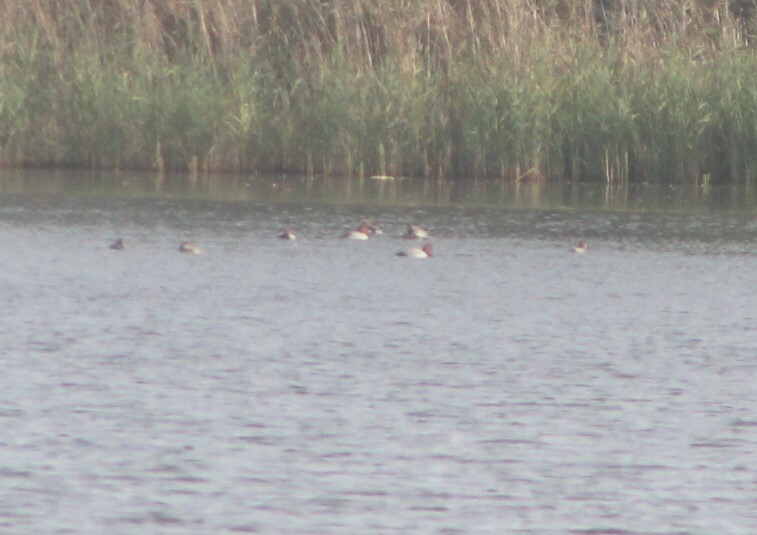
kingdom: Animalia
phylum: Chordata
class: Aves
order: Anseriformes
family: Anatidae
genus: Aythya
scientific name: Aythya ferina
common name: Common pochard
